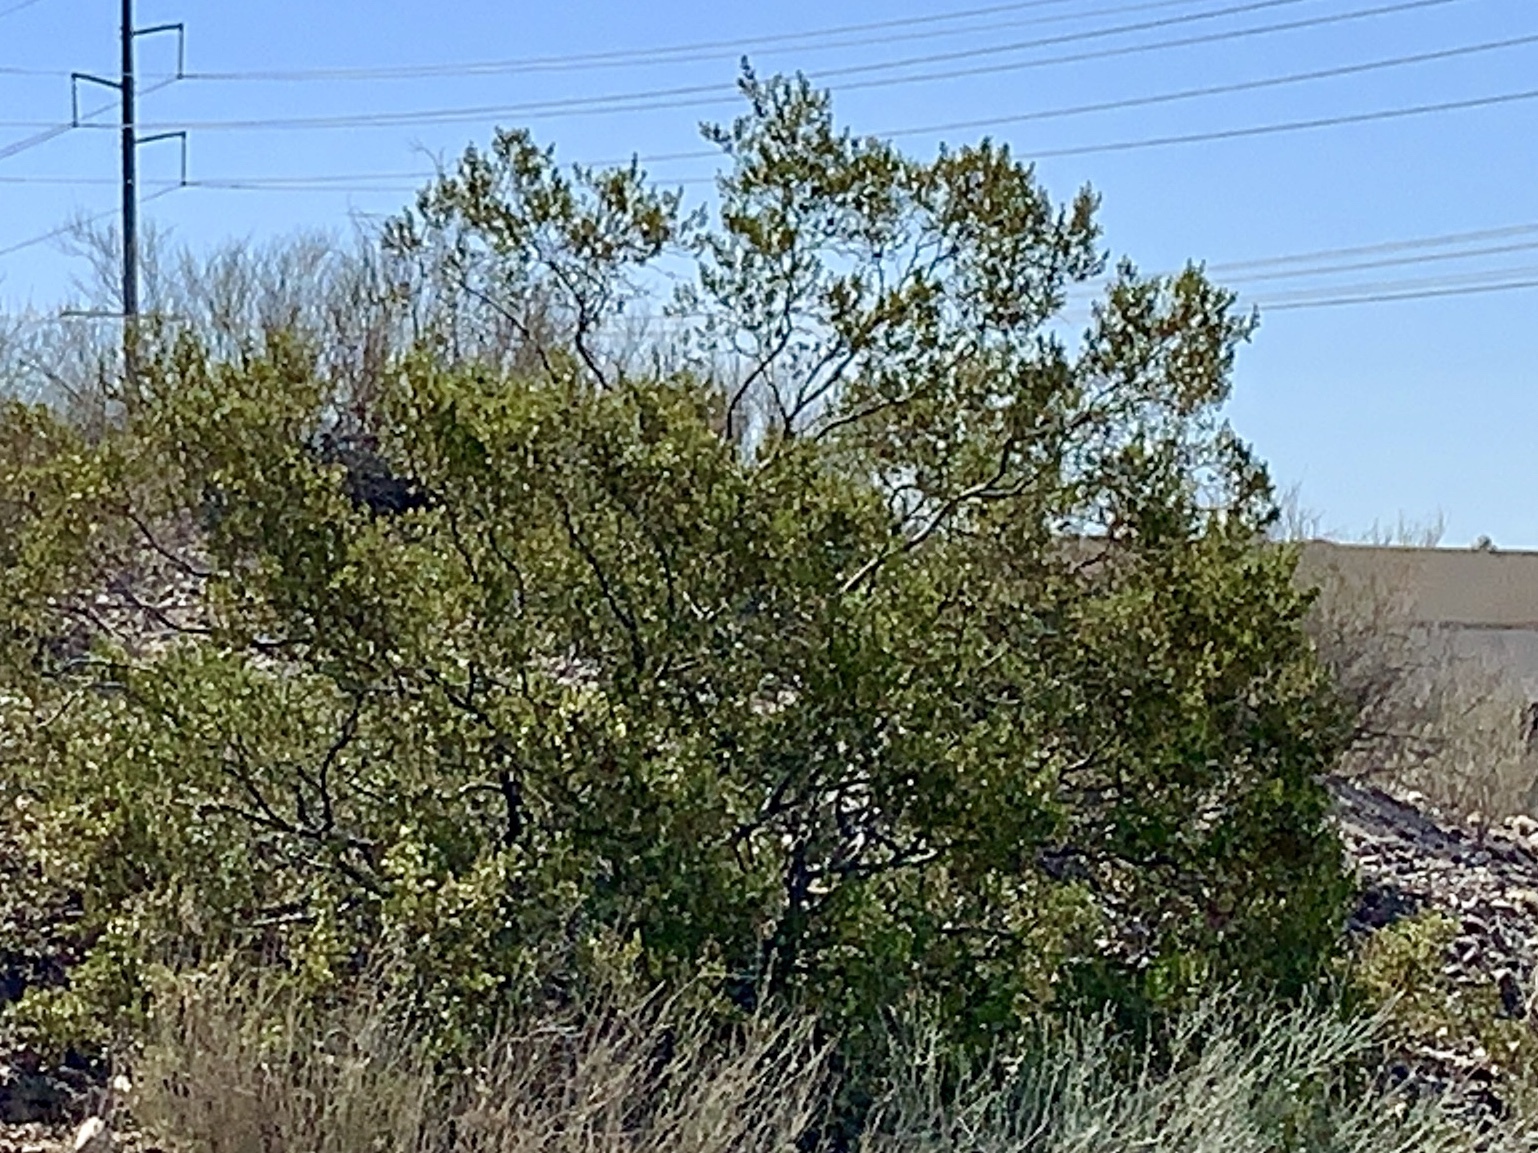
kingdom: Plantae
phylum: Tracheophyta
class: Magnoliopsida
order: Zygophyllales
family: Zygophyllaceae
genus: Larrea
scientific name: Larrea tridentata
